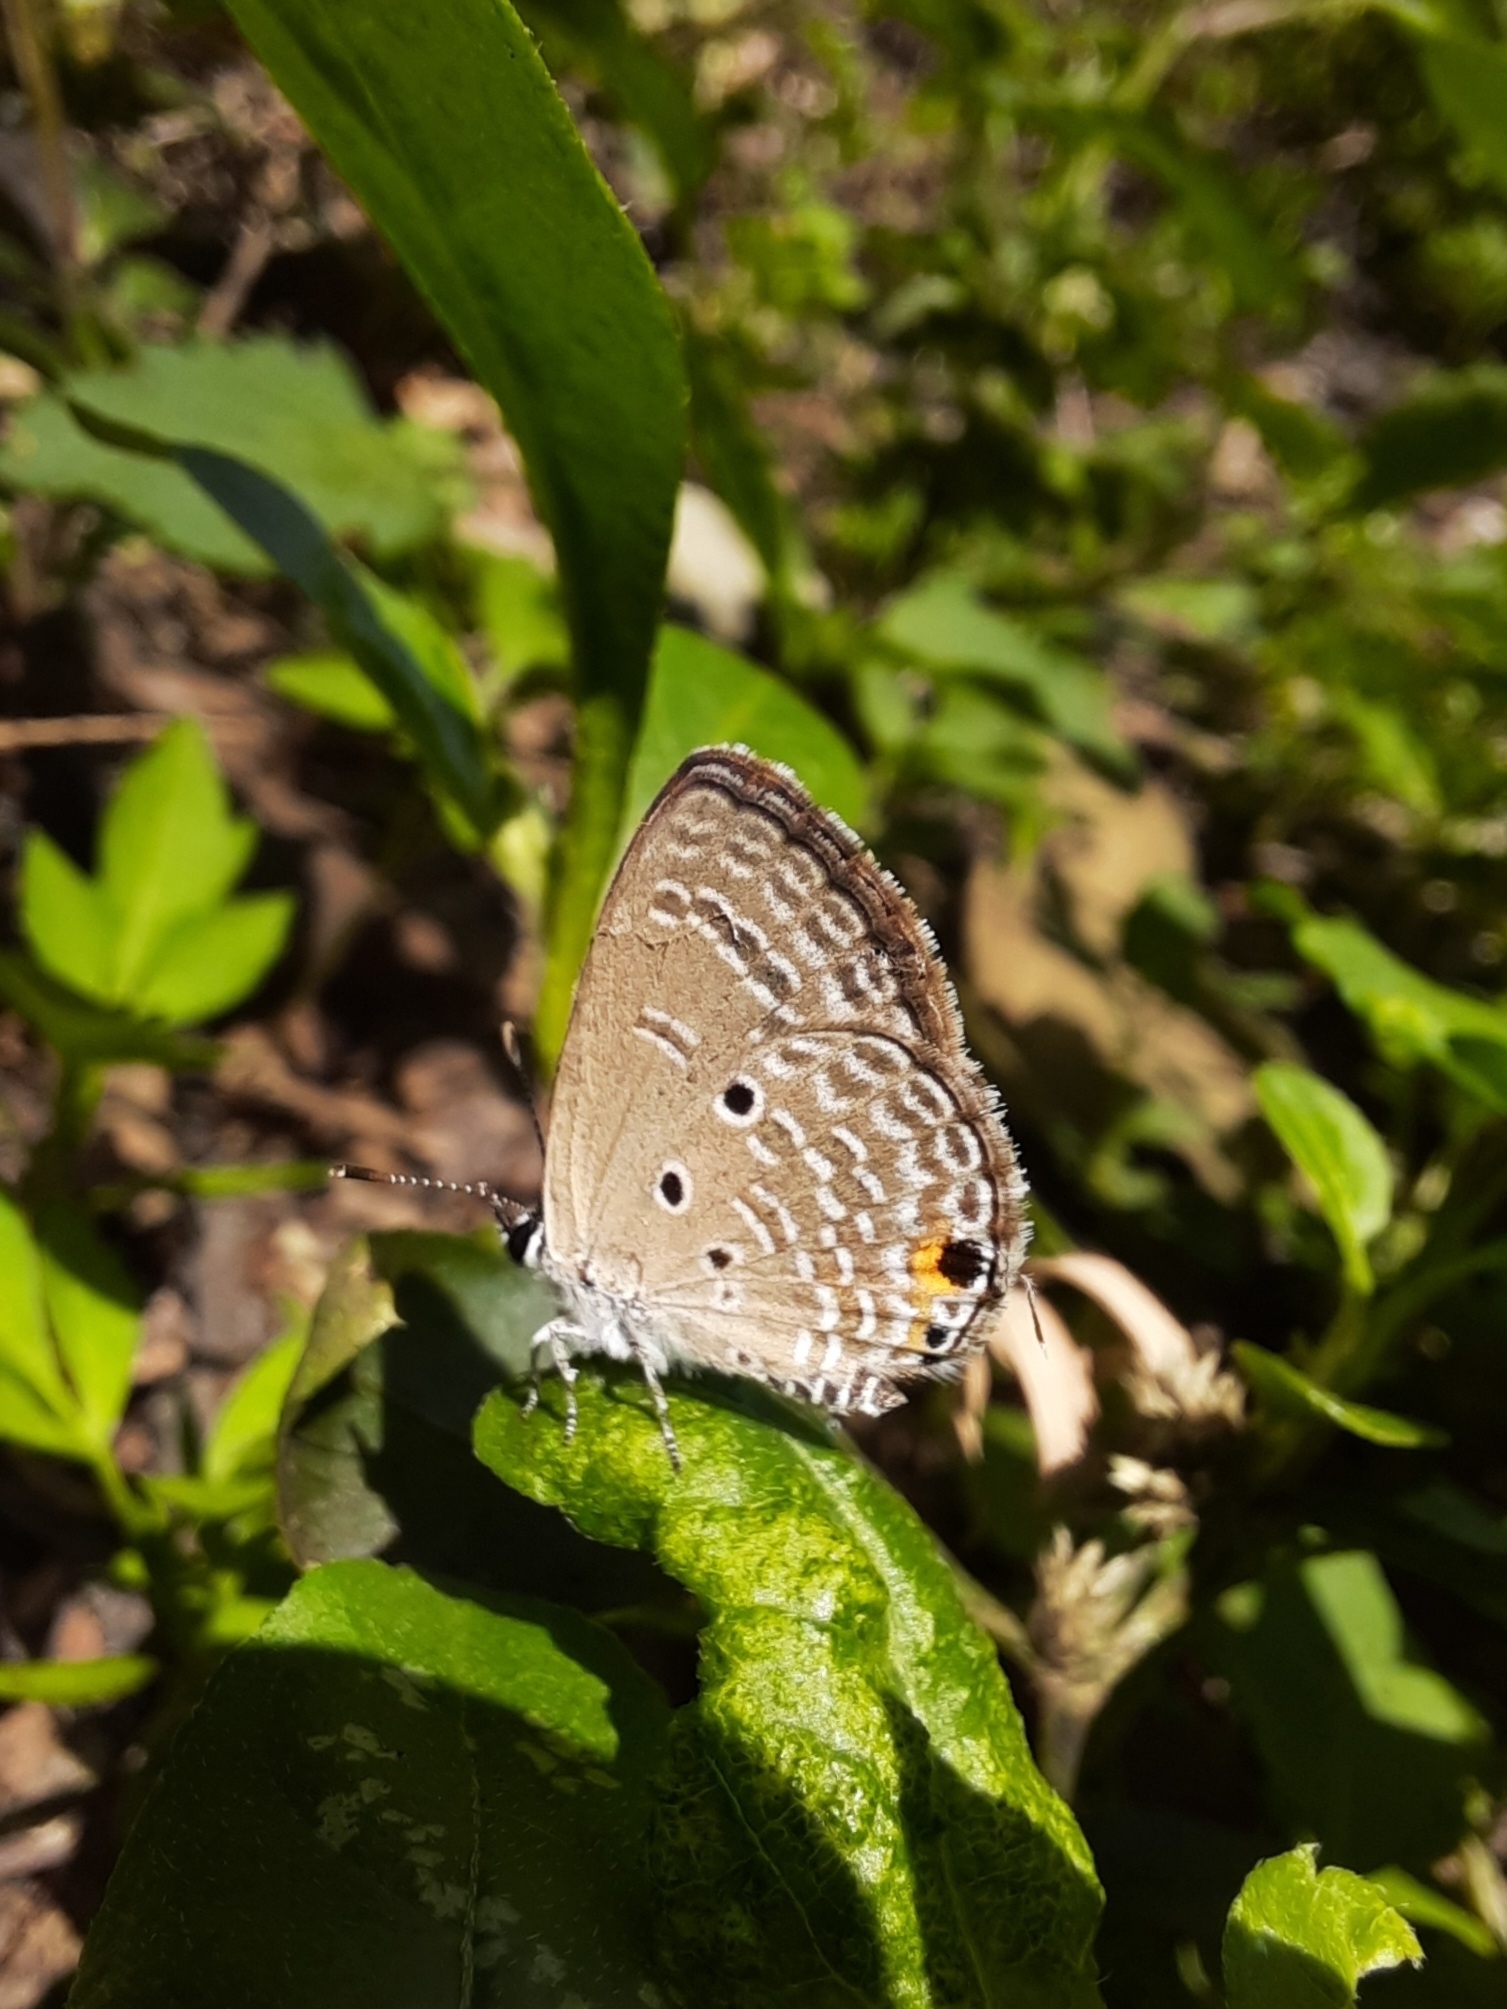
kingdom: Animalia
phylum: Arthropoda
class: Insecta
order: Lepidoptera
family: Lycaenidae
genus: Luthrodes
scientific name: Luthrodes pandava
